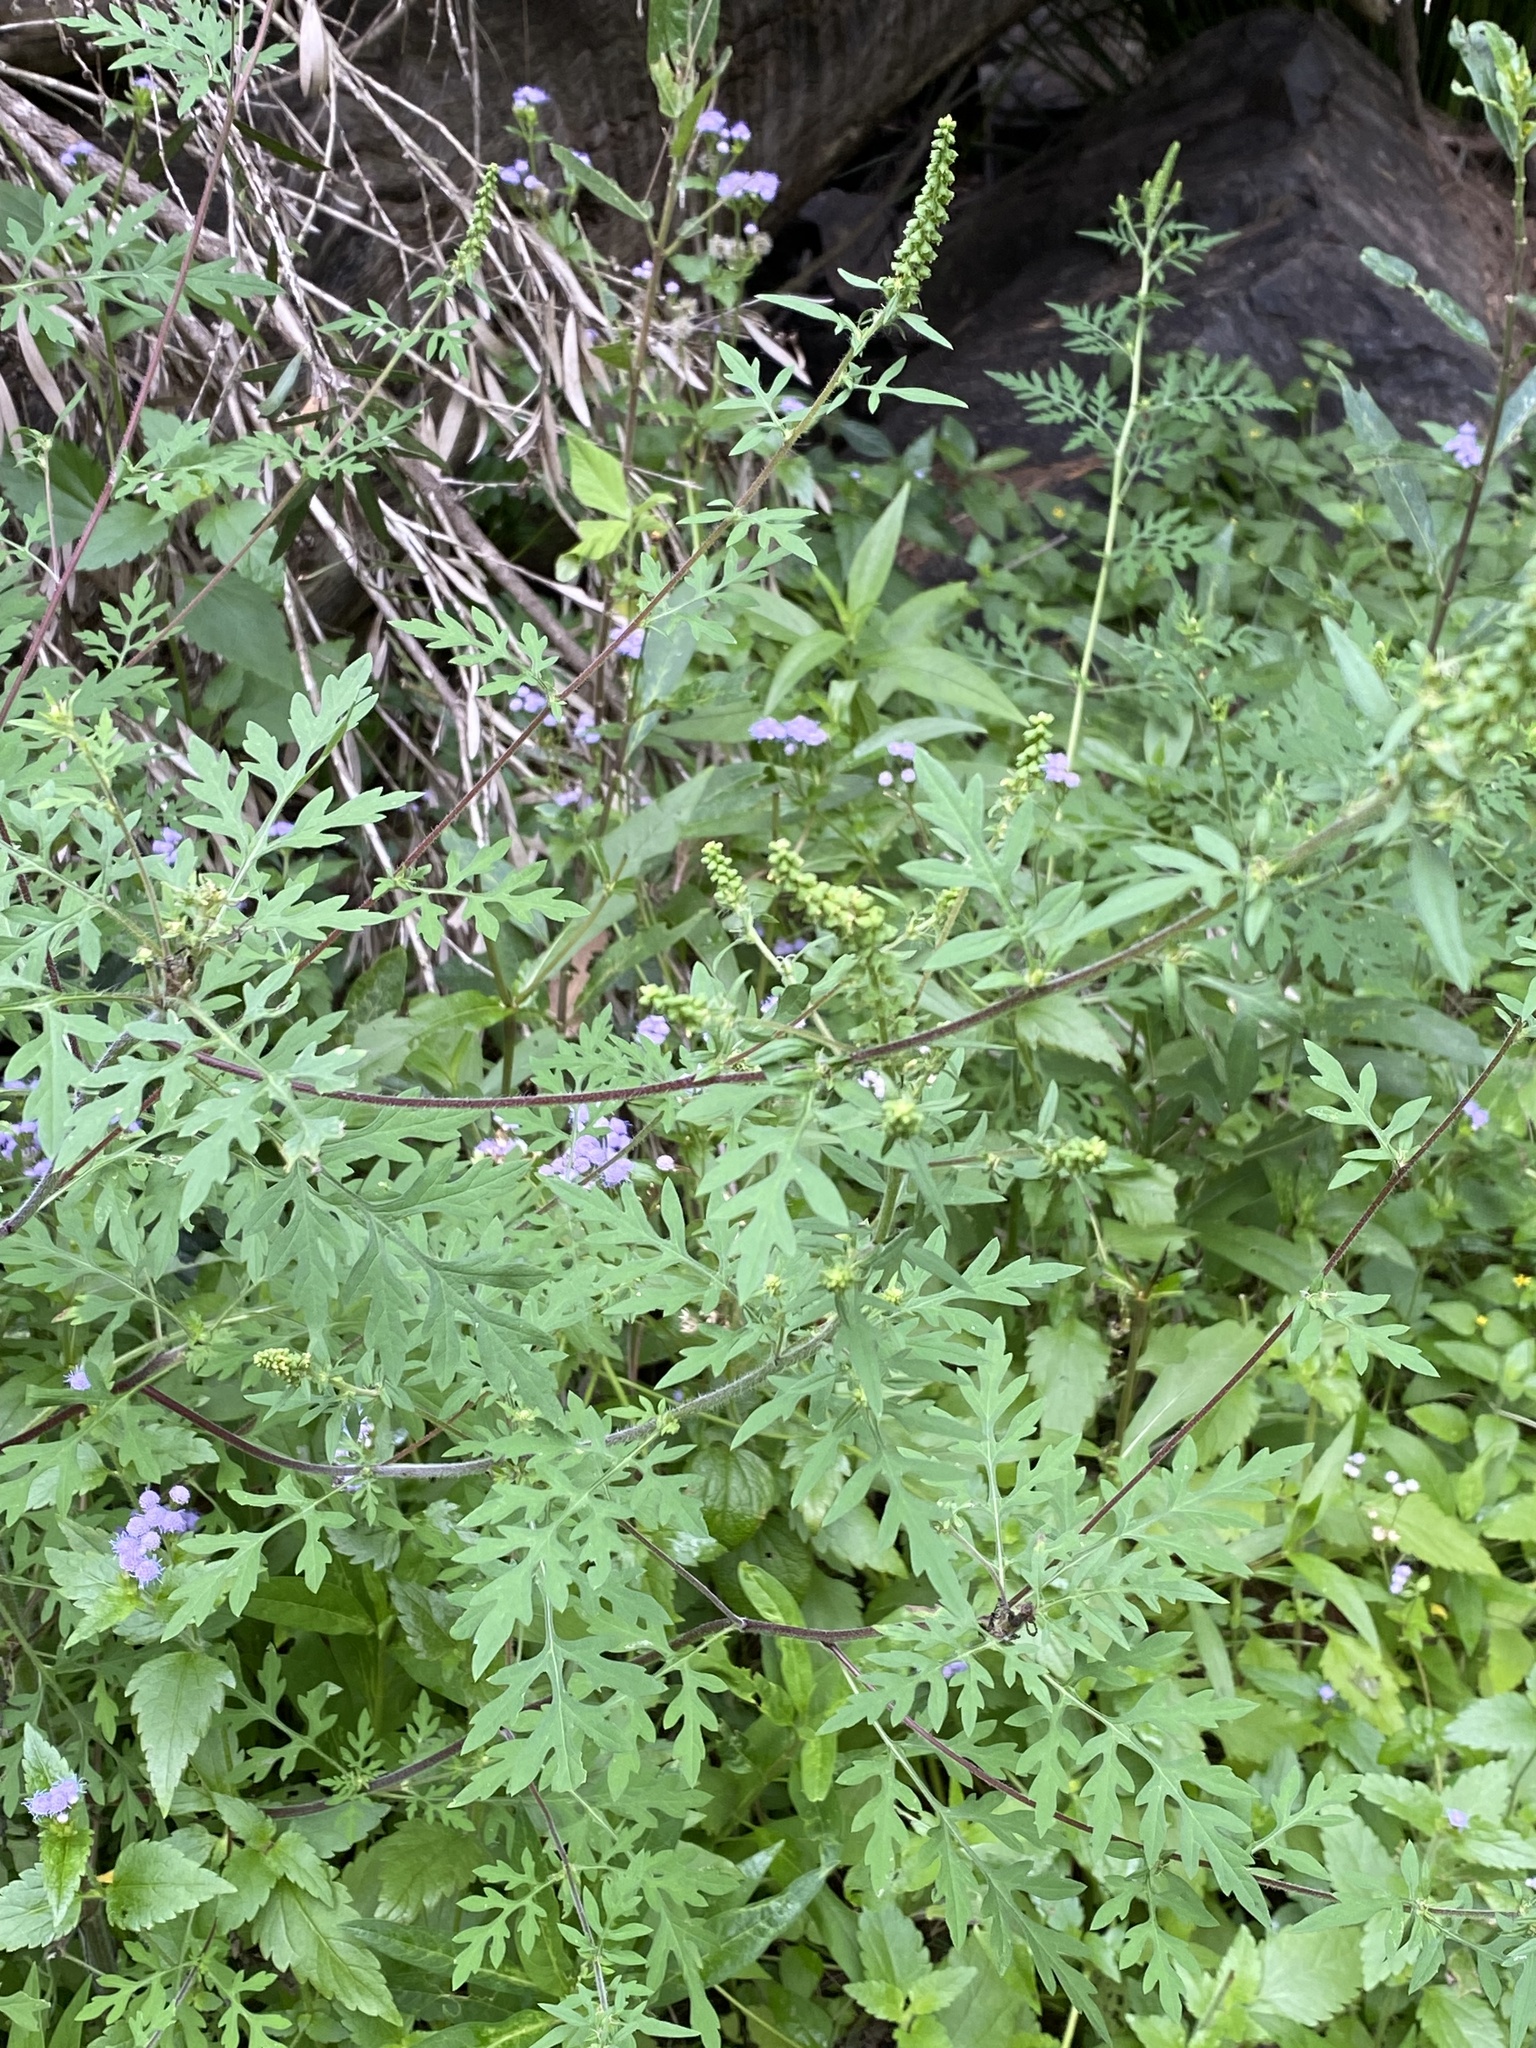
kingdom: Plantae
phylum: Tracheophyta
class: Magnoliopsida
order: Asterales
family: Asteraceae
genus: Ambrosia
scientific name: Ambrosia artemisiifolia
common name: Annual ragweed
